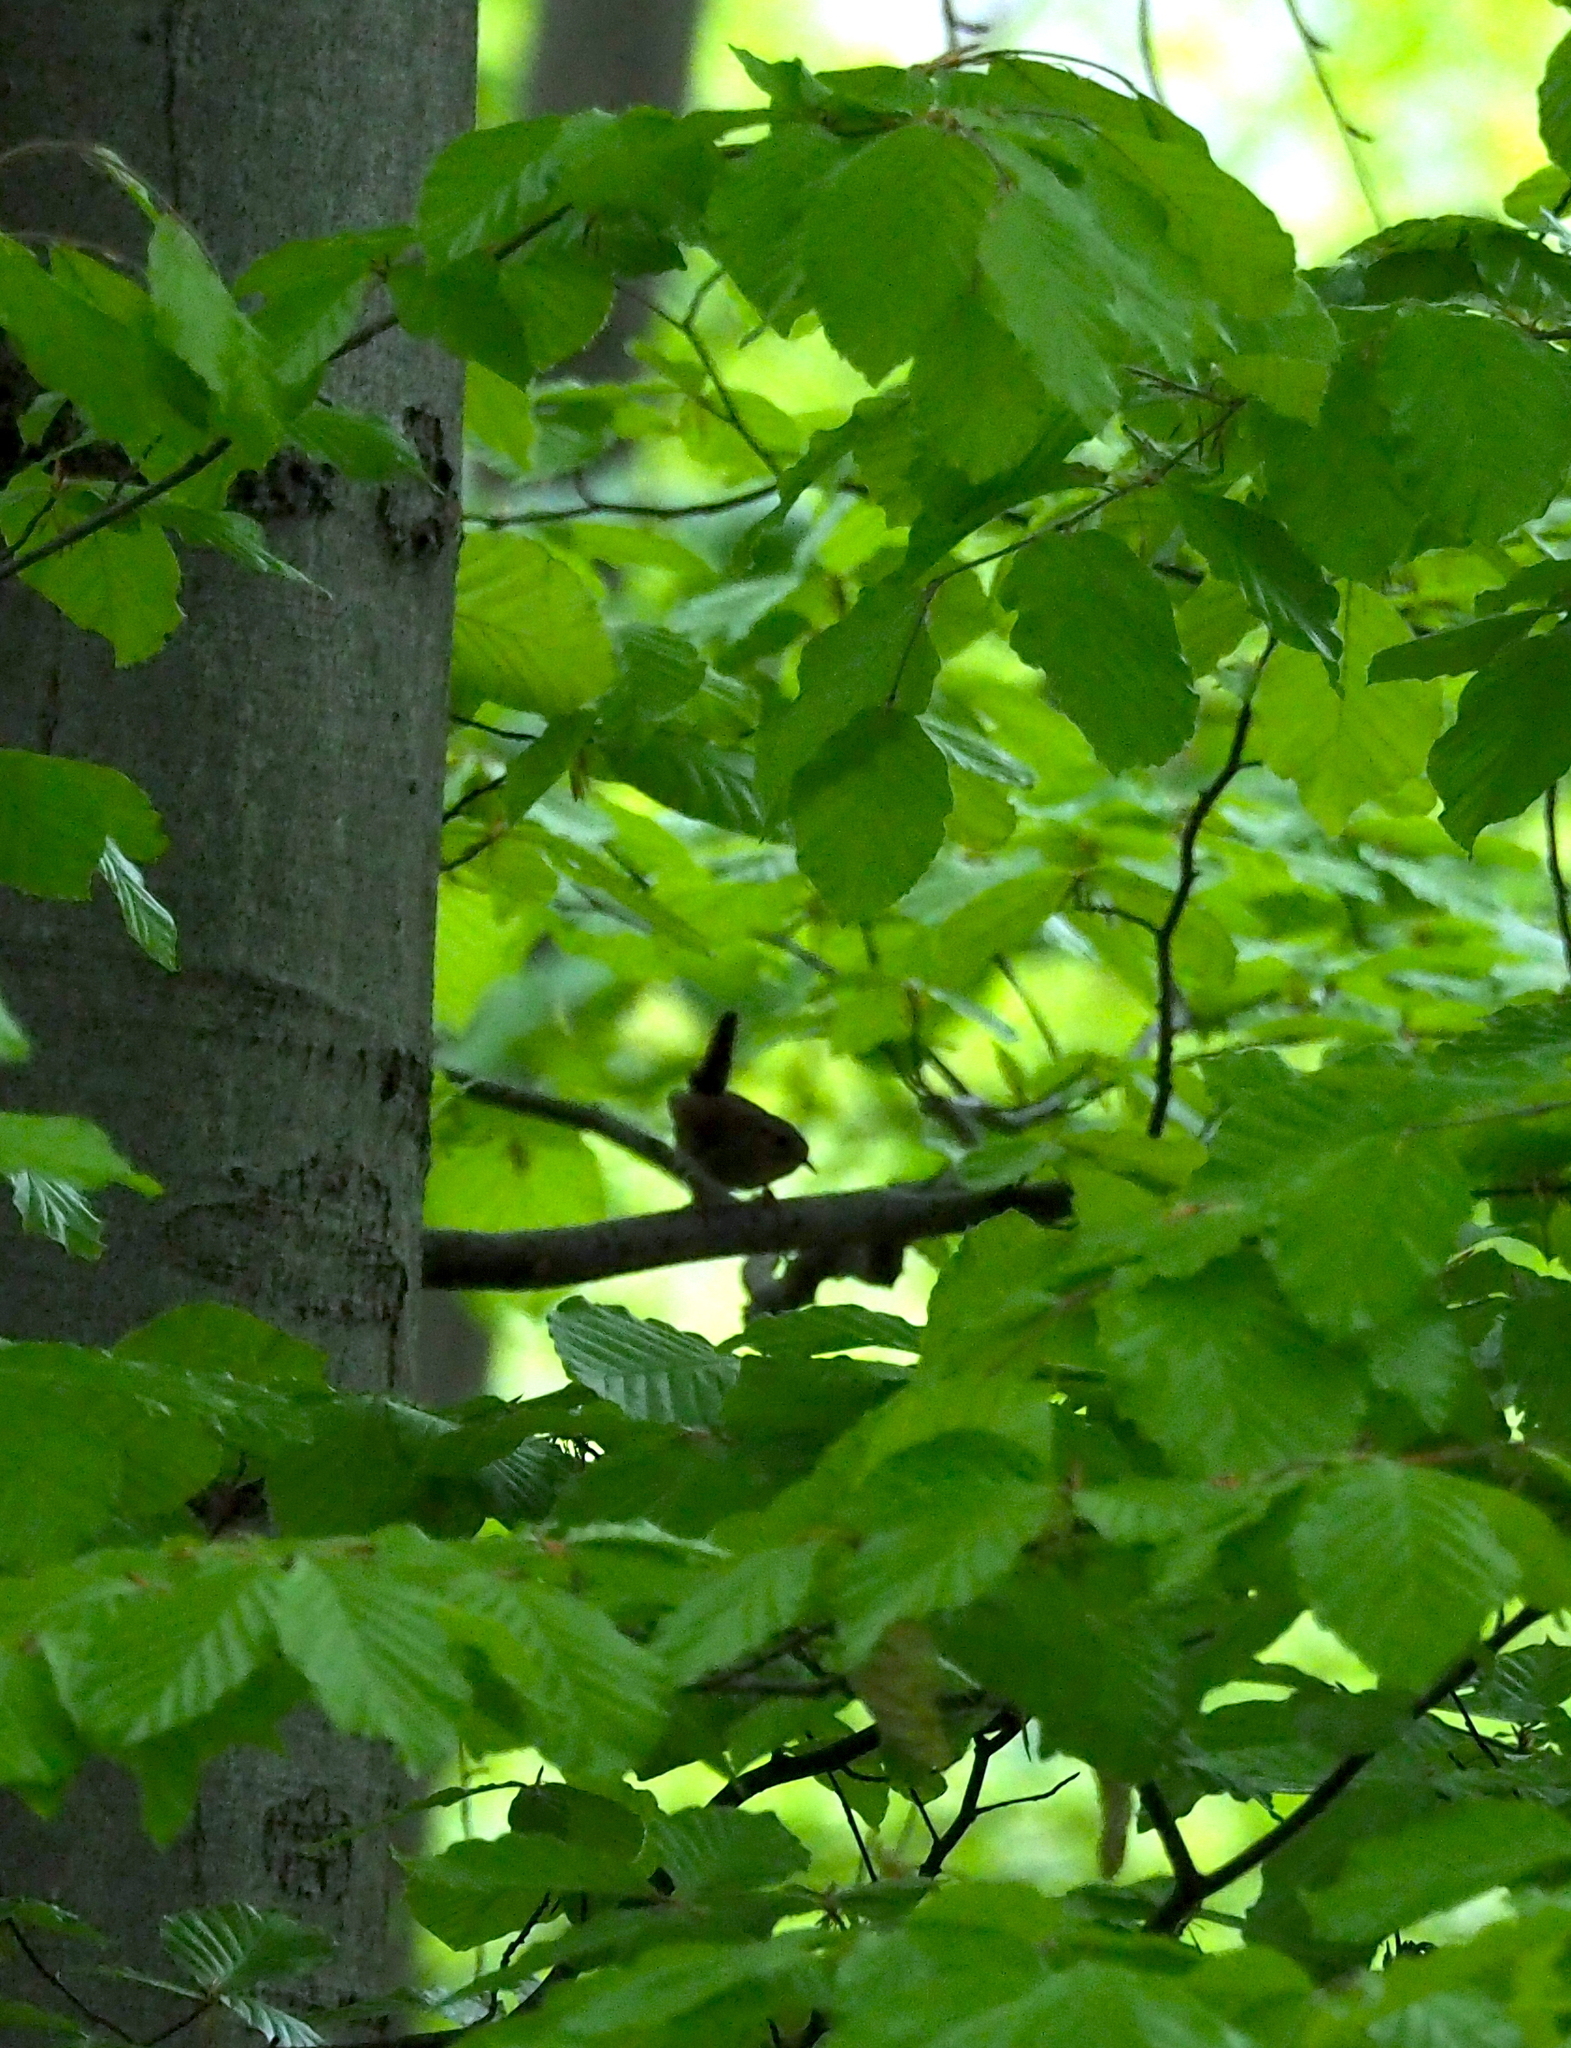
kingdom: Animalia
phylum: Chordata
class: Aves
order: Passeriformes
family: Troglodytidae
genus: Troglodytes
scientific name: Troglodytes troglodytes
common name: Eurasian wren
